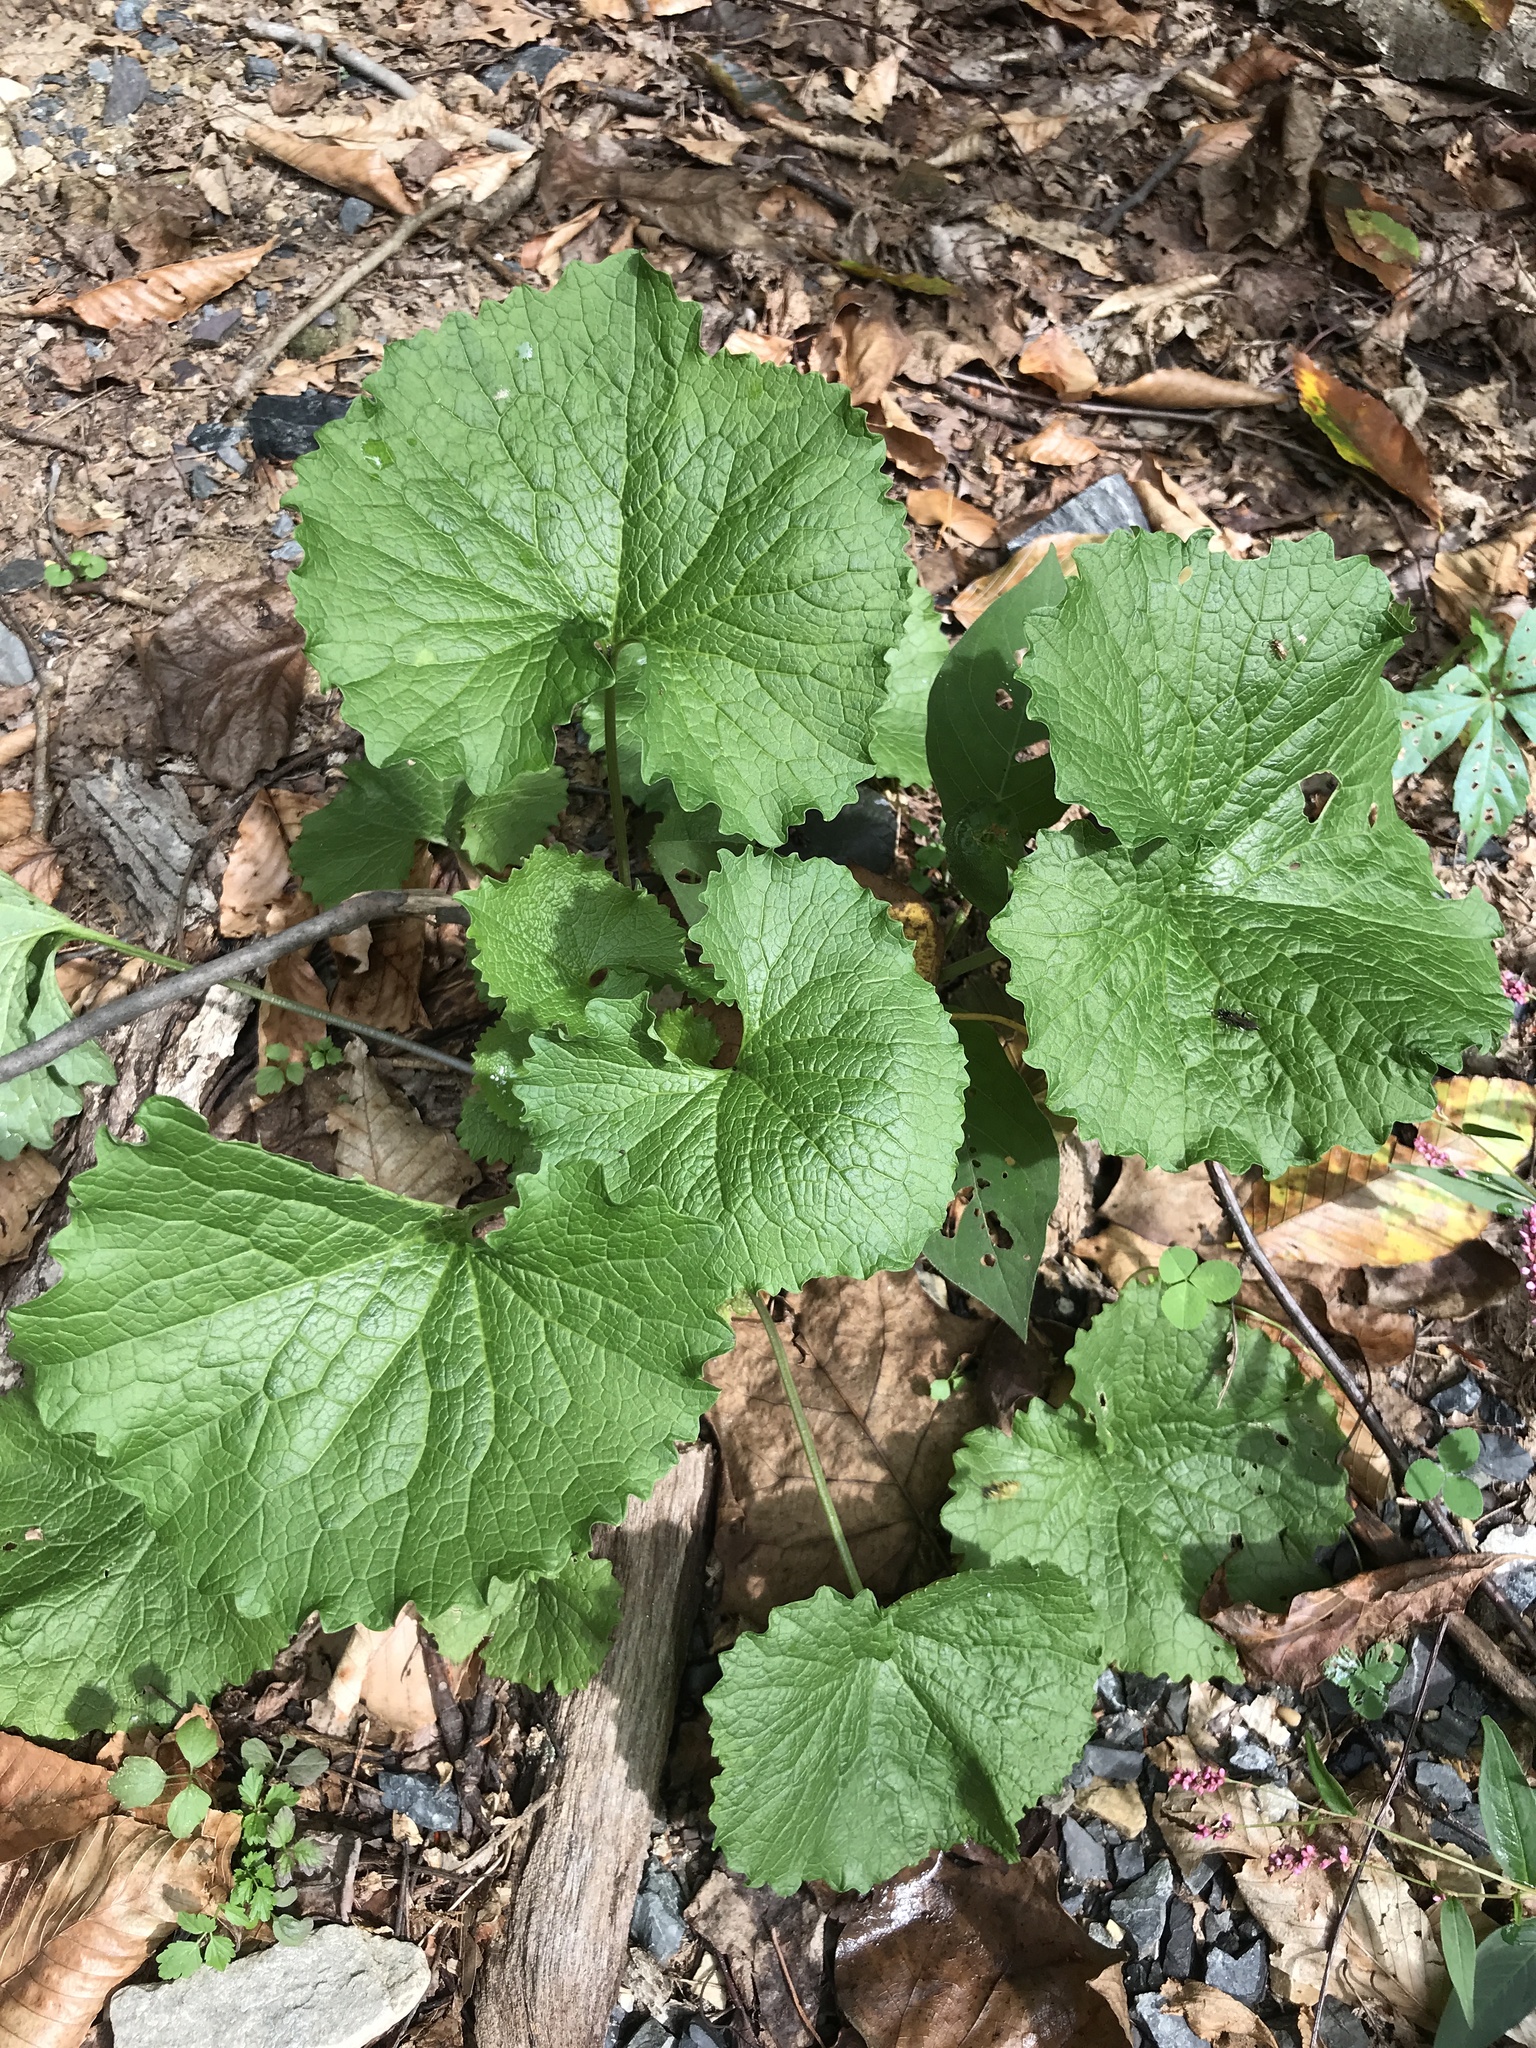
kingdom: Plantae
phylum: Tracheophyta
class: Magnoliopsida
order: Brassicales
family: Brassicaceae
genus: Alliaria
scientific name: Alliaria petiolata
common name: Garlic mustard
